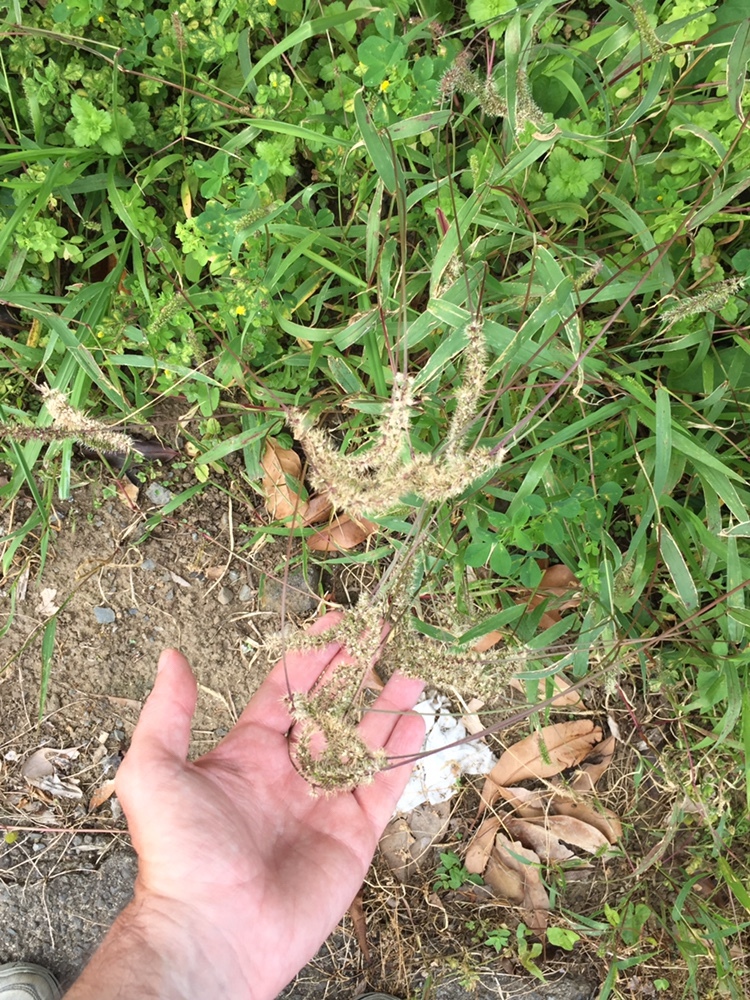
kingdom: Plantae
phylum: Tracheophyta
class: Liliopsida
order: Poales
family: Poaceae
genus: Setaria
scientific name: Setaria verticillata
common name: Hooked bristlegrass
